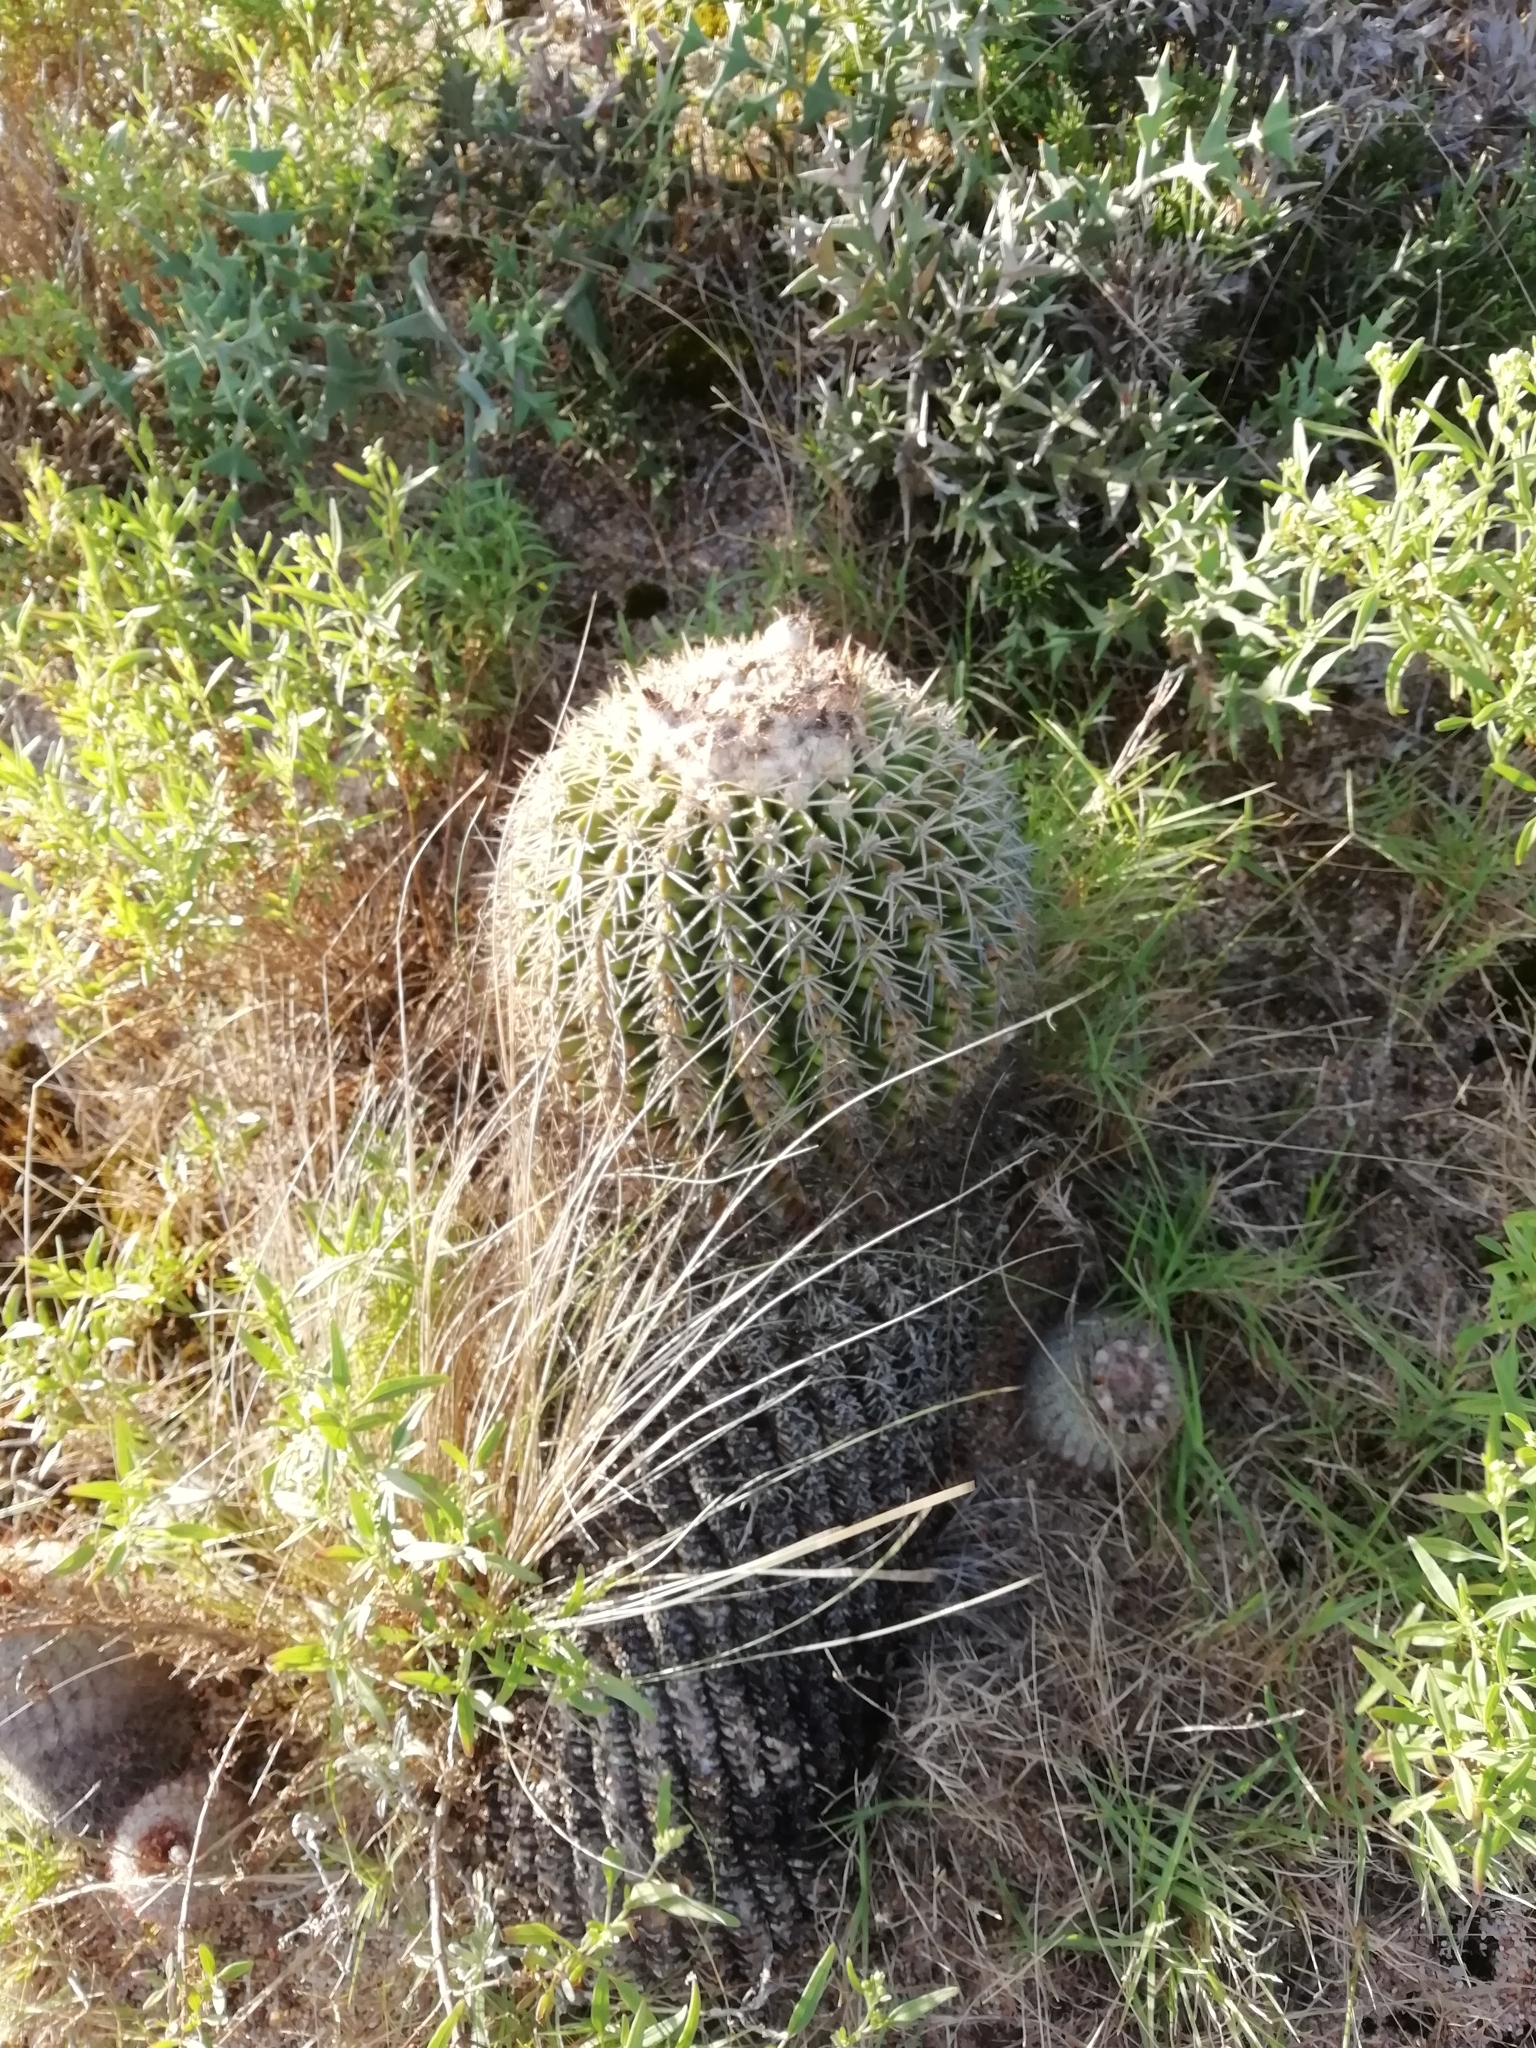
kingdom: Plantae
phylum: Tracheophyta
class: Magnoliopsida
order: Caryophyllales
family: Cactaceae
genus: Parodia
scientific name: Parodia erinacea
